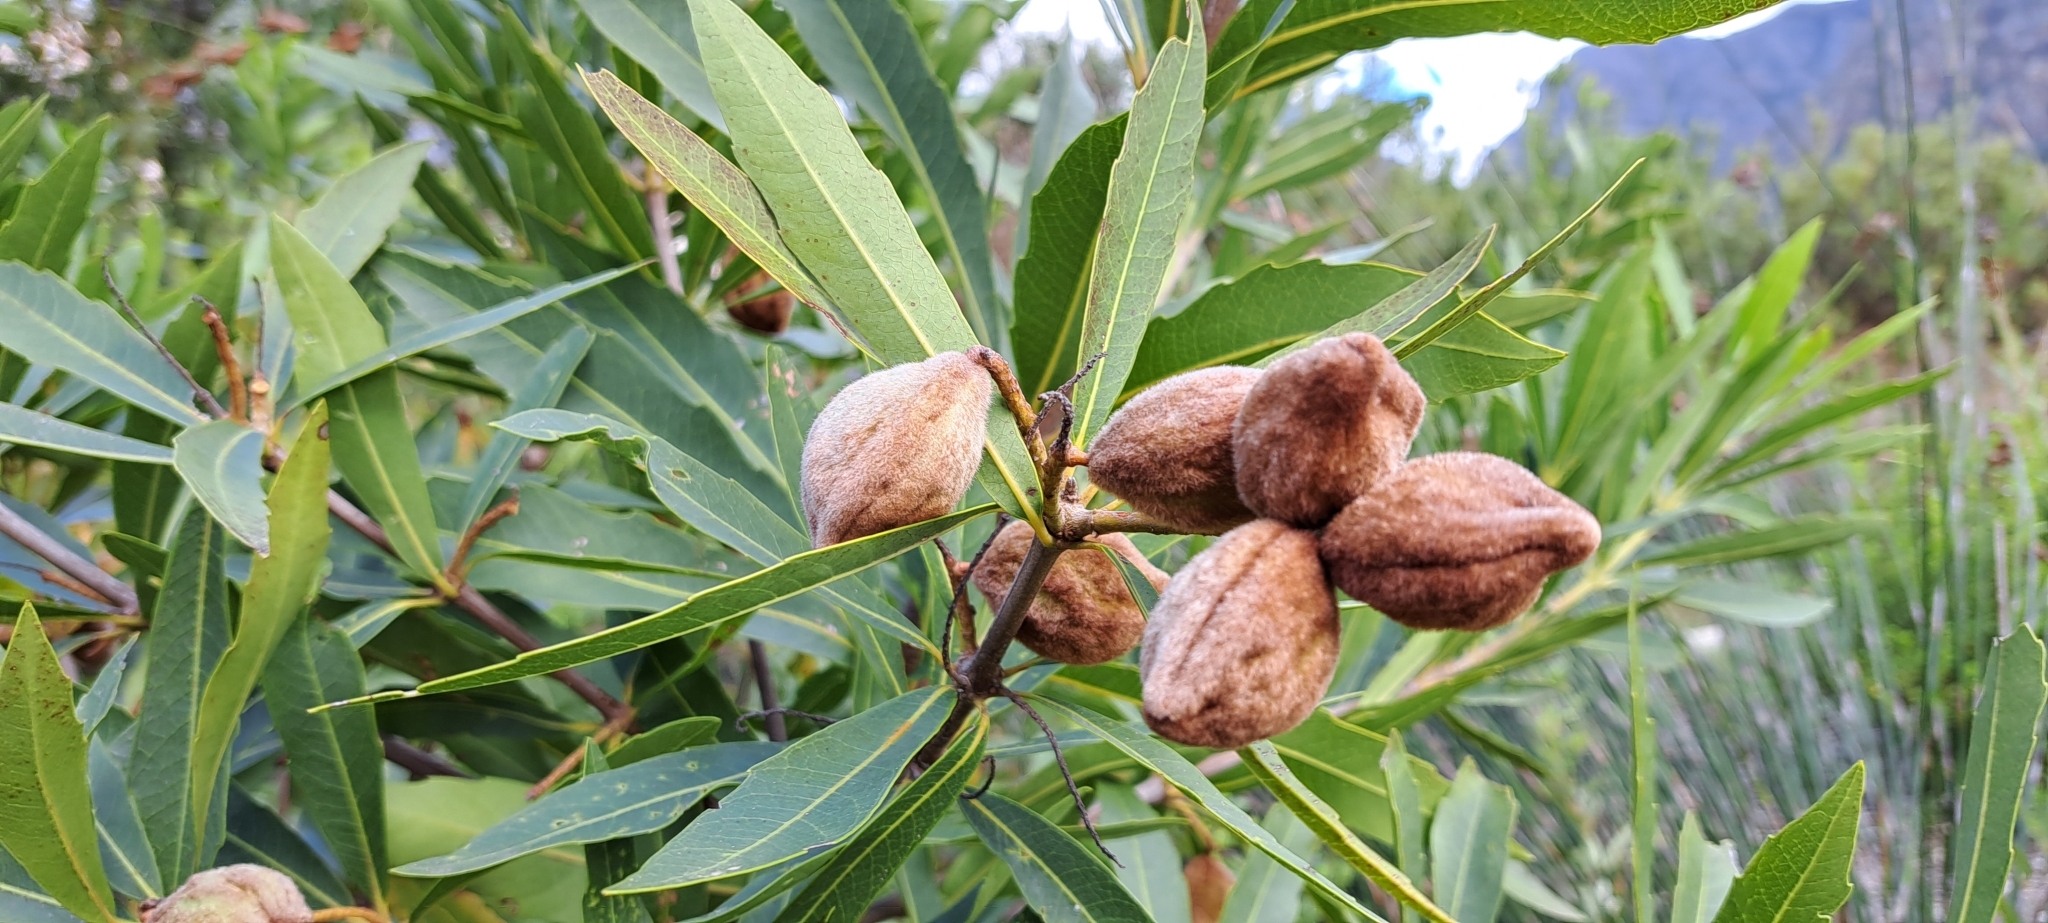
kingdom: Plantae
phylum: Tracheophyta
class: Magnoliopsida
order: Proteales
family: Proteaceae
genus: Brabejum
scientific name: Brabejum stellatifolium
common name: Wild almond
